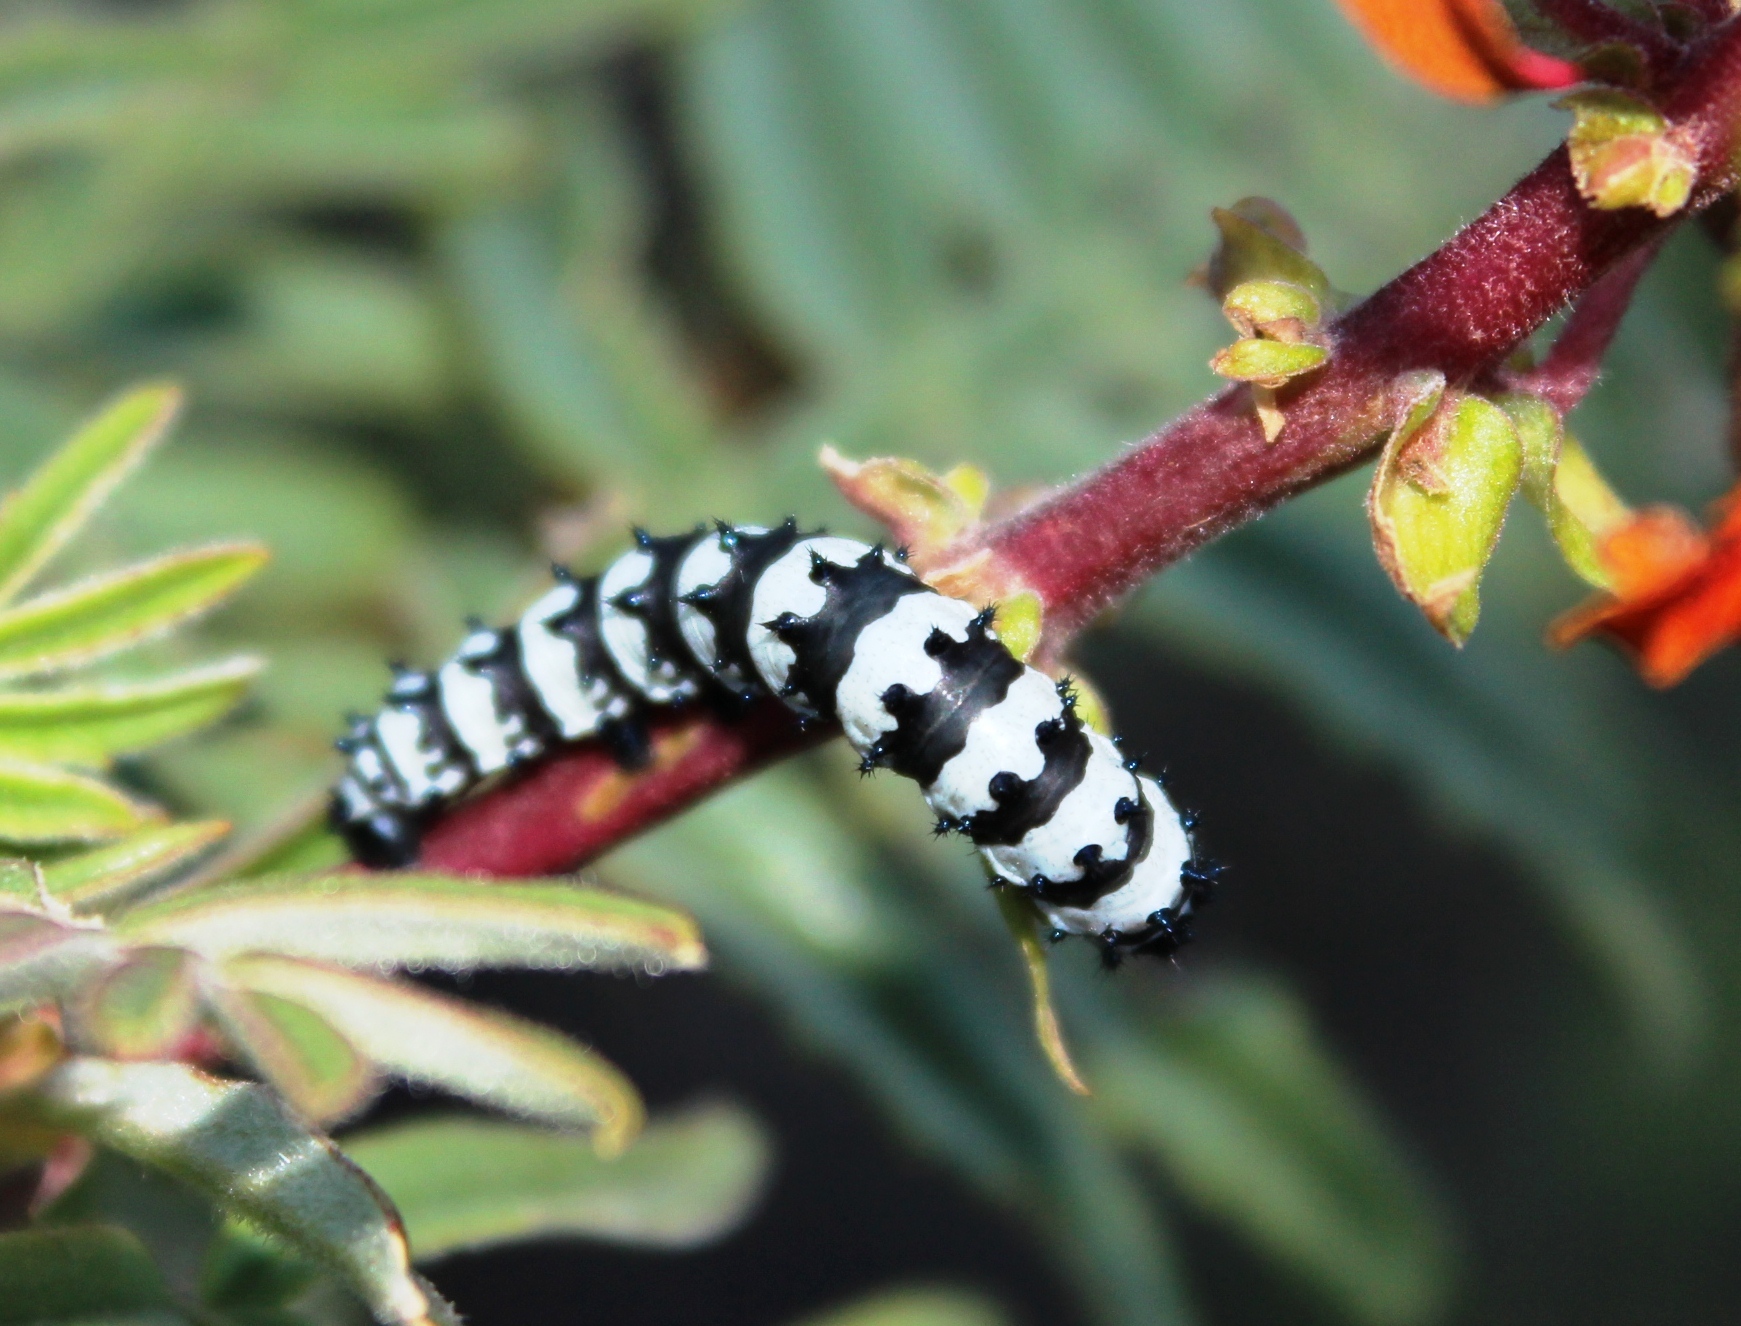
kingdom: Animalia
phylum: Arthropoda
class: Insecta
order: Lepidoptera
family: Saturniidae
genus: Eochroa
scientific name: Eochroa trimeni
